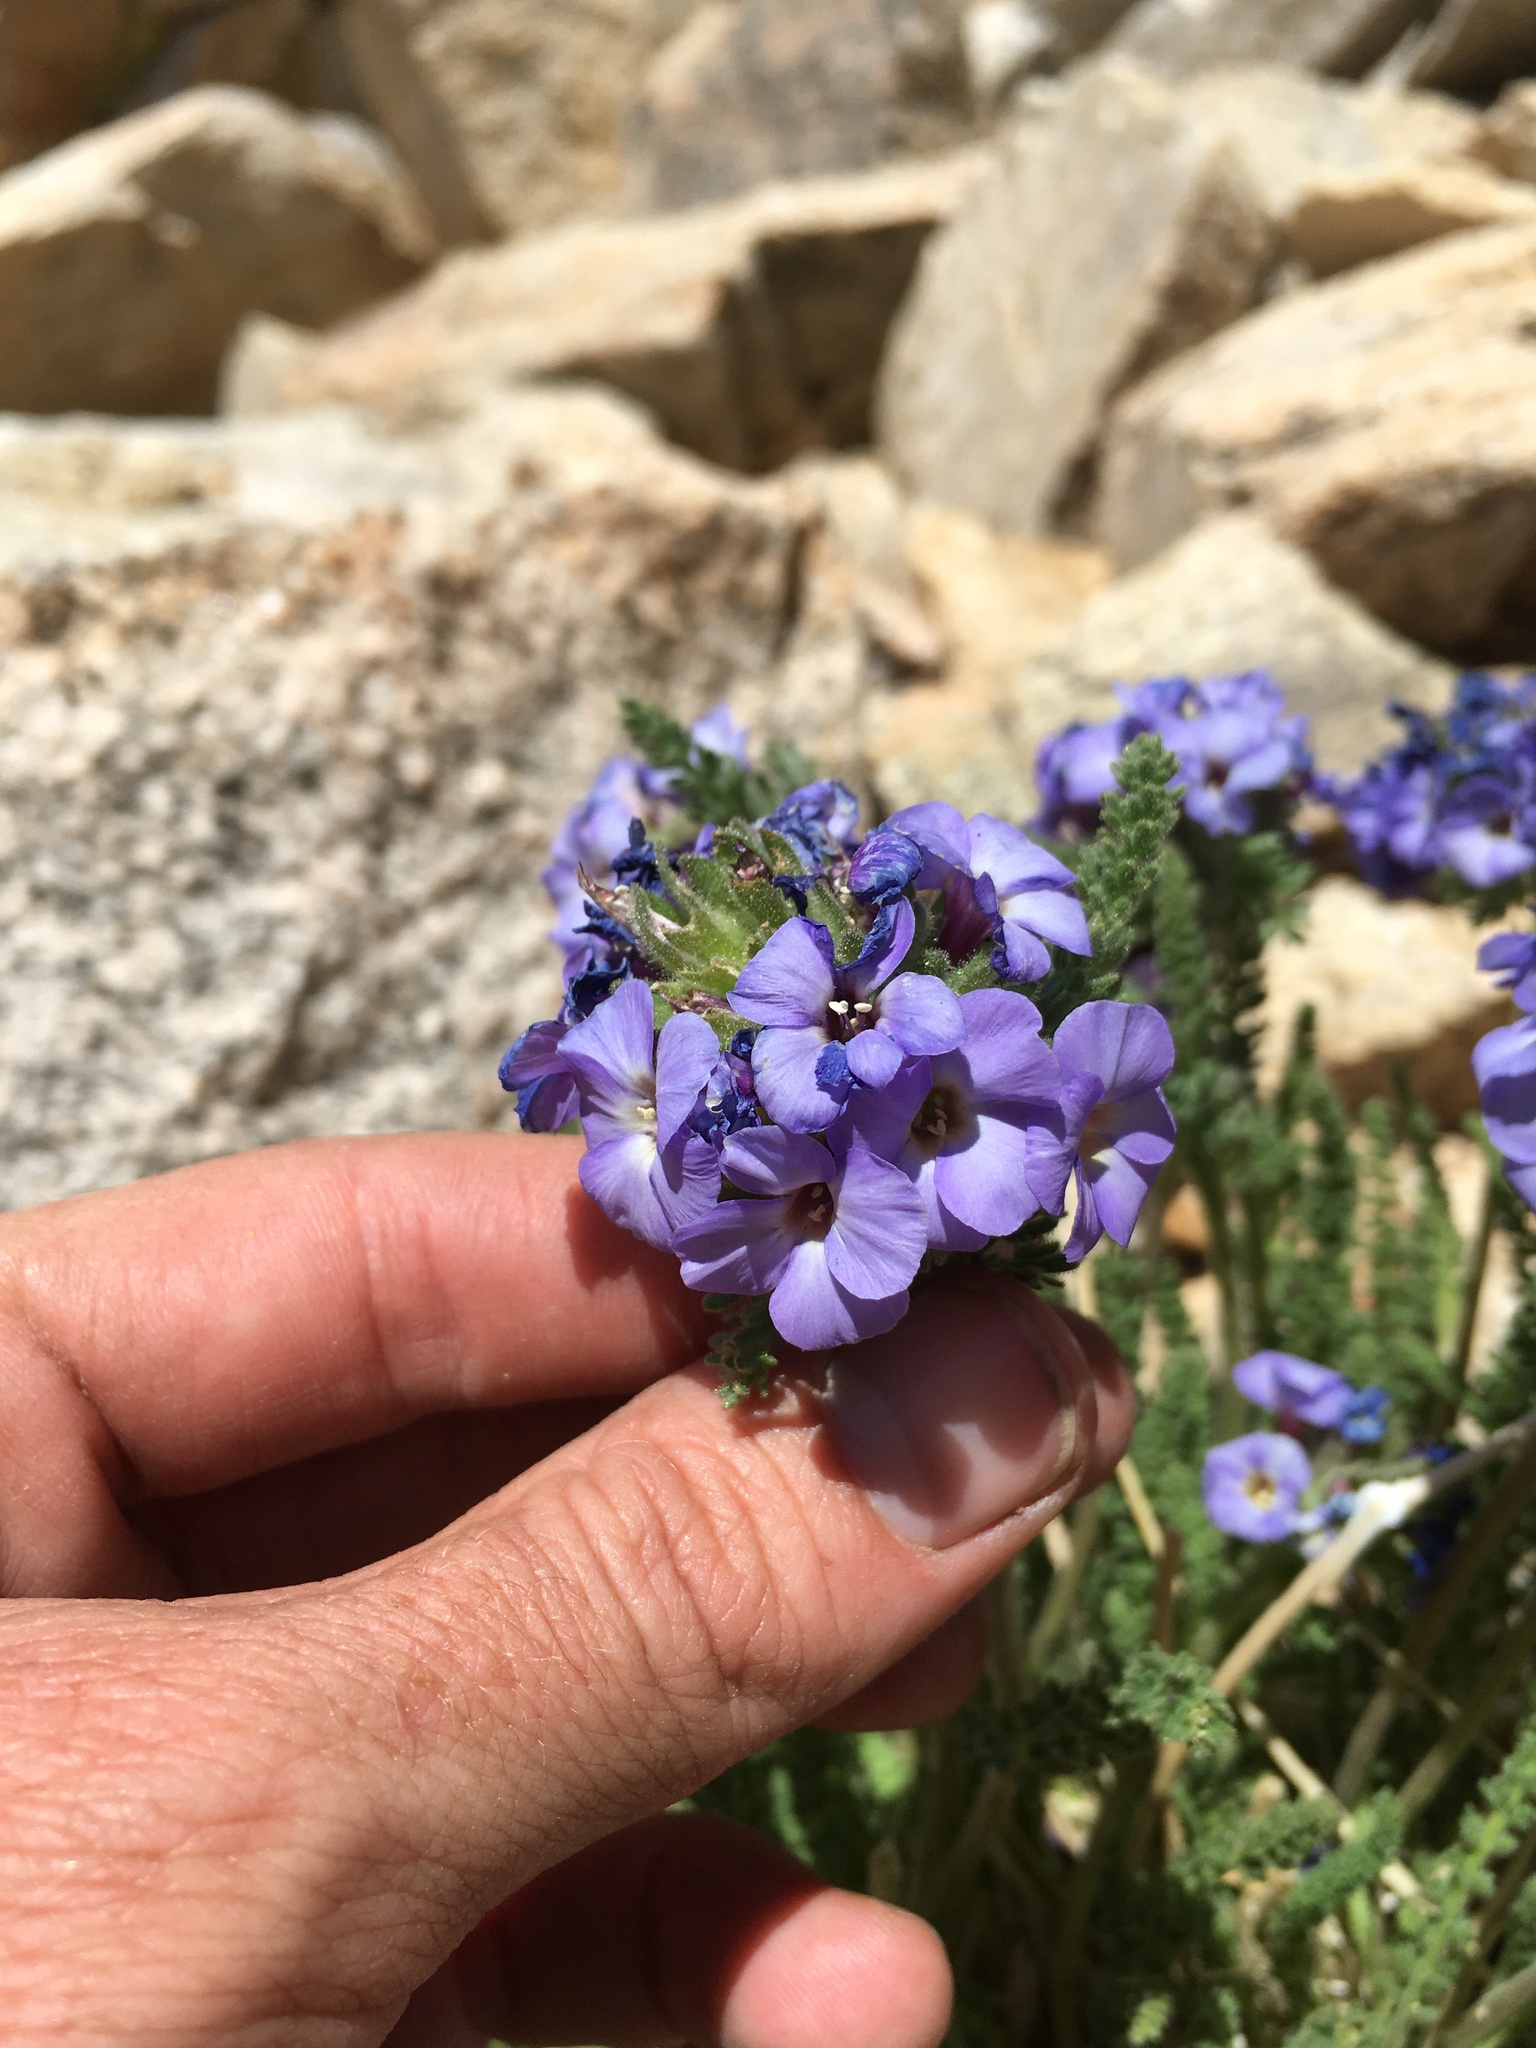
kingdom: Plantae
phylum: Tracheophyta
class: Magnoliopsida
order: Ericales
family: Polemoniaceae
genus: Polemonium
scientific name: Polemonium eximium
